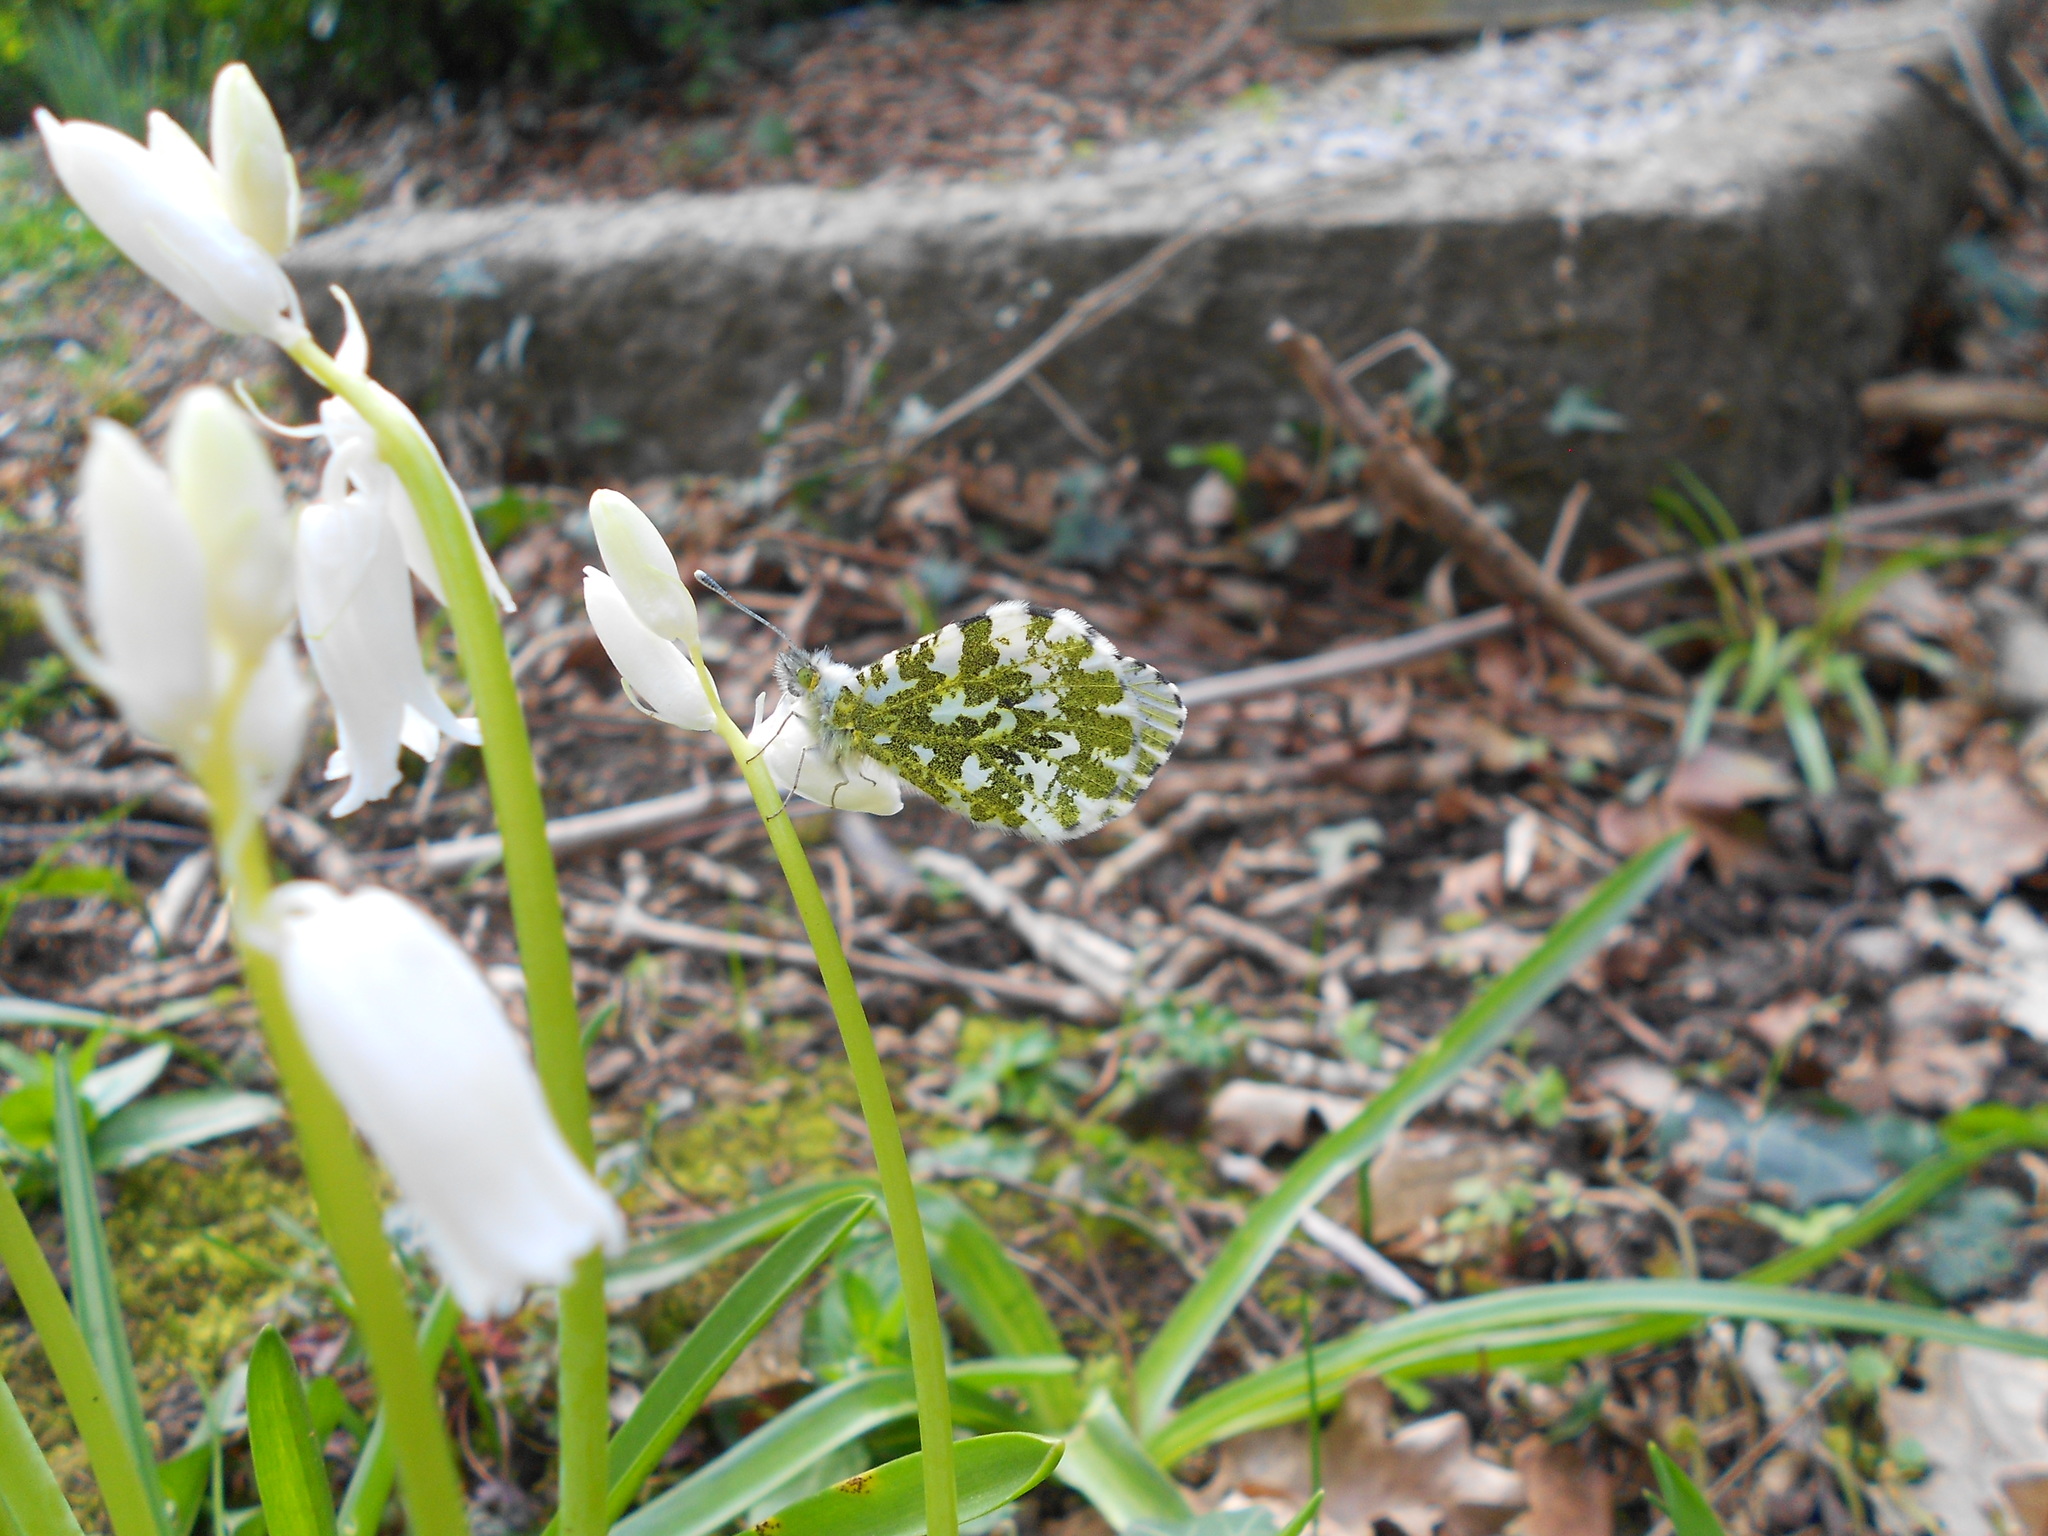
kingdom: Animalia
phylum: Arthropoda
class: Insecta
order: Lepidoptera
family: Pieridae
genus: Anthocharis
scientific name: Anthocharis cardamines
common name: Orange-tip
